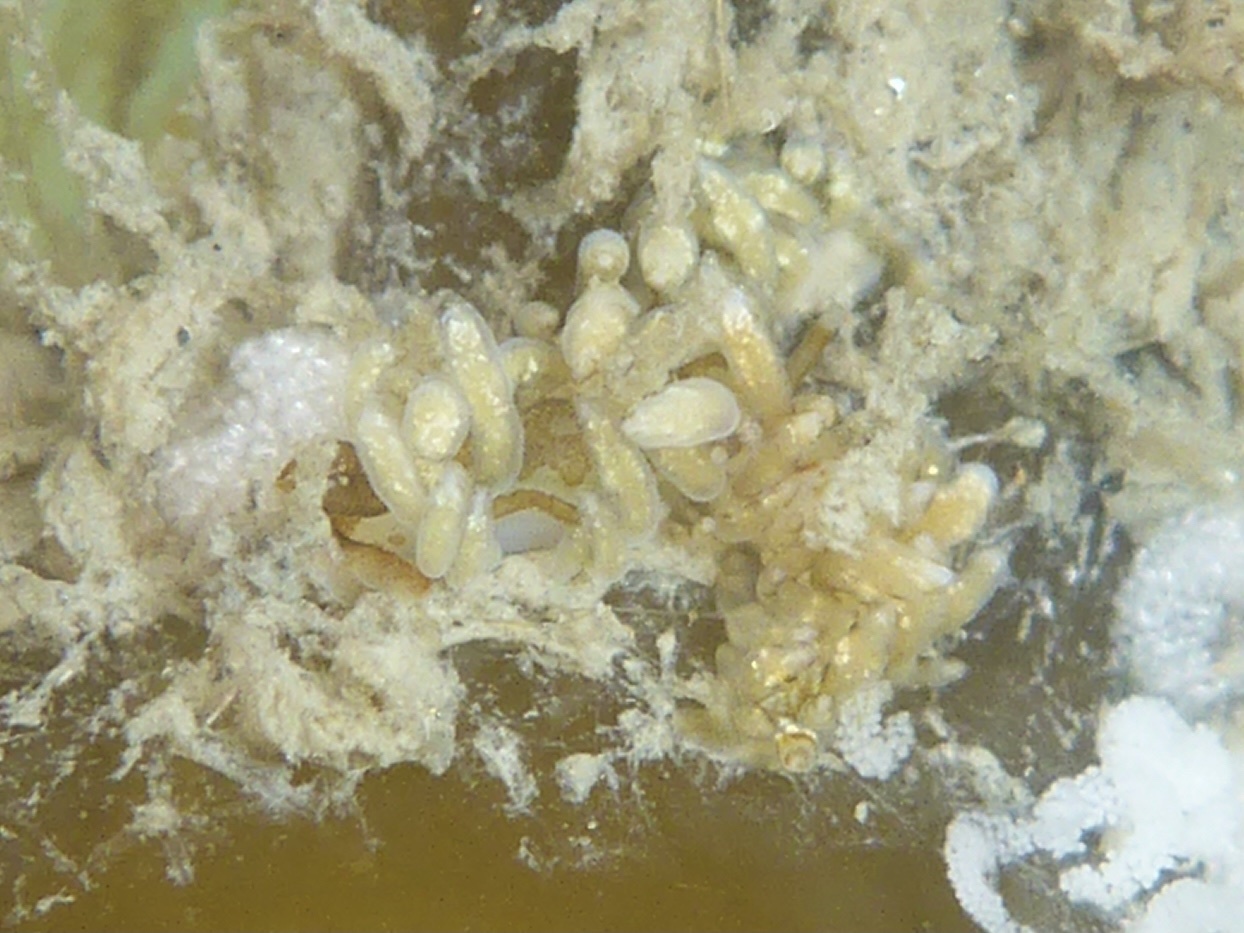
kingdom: Animalia
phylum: Mollusca
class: Gastropoda
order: Nudibranchia
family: Eubranchidae
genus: Eubranchus
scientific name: Eubranchus rustyus
